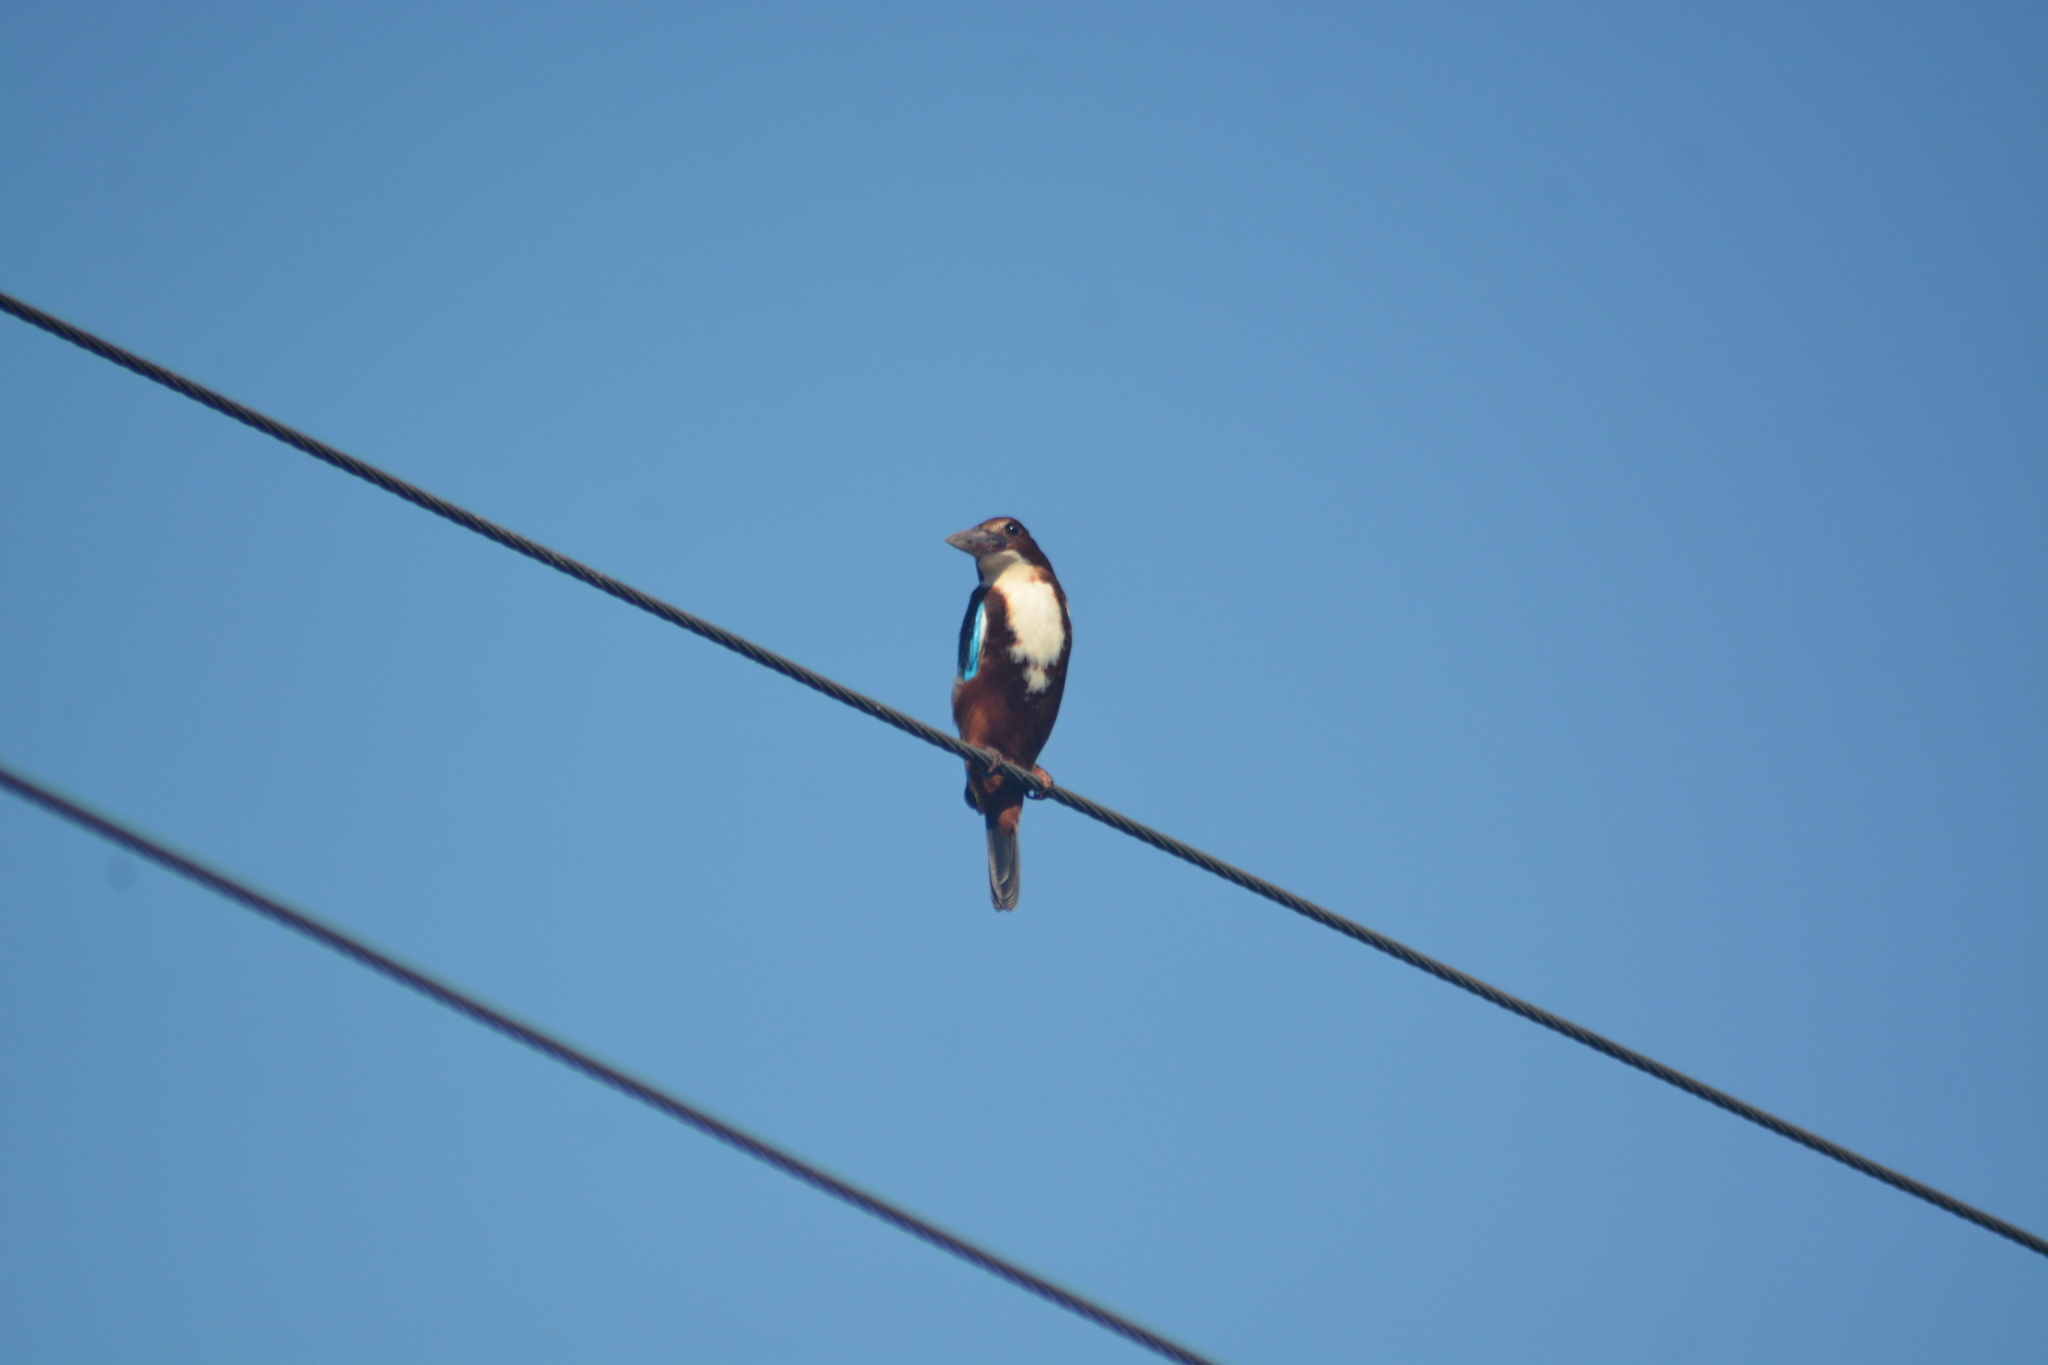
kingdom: Animalia
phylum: Chordata
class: Aves
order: Coraciiformes
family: Alcedinidae
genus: Halcyon
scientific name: Halcyon smyrnensis
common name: White-throated kingfisher
